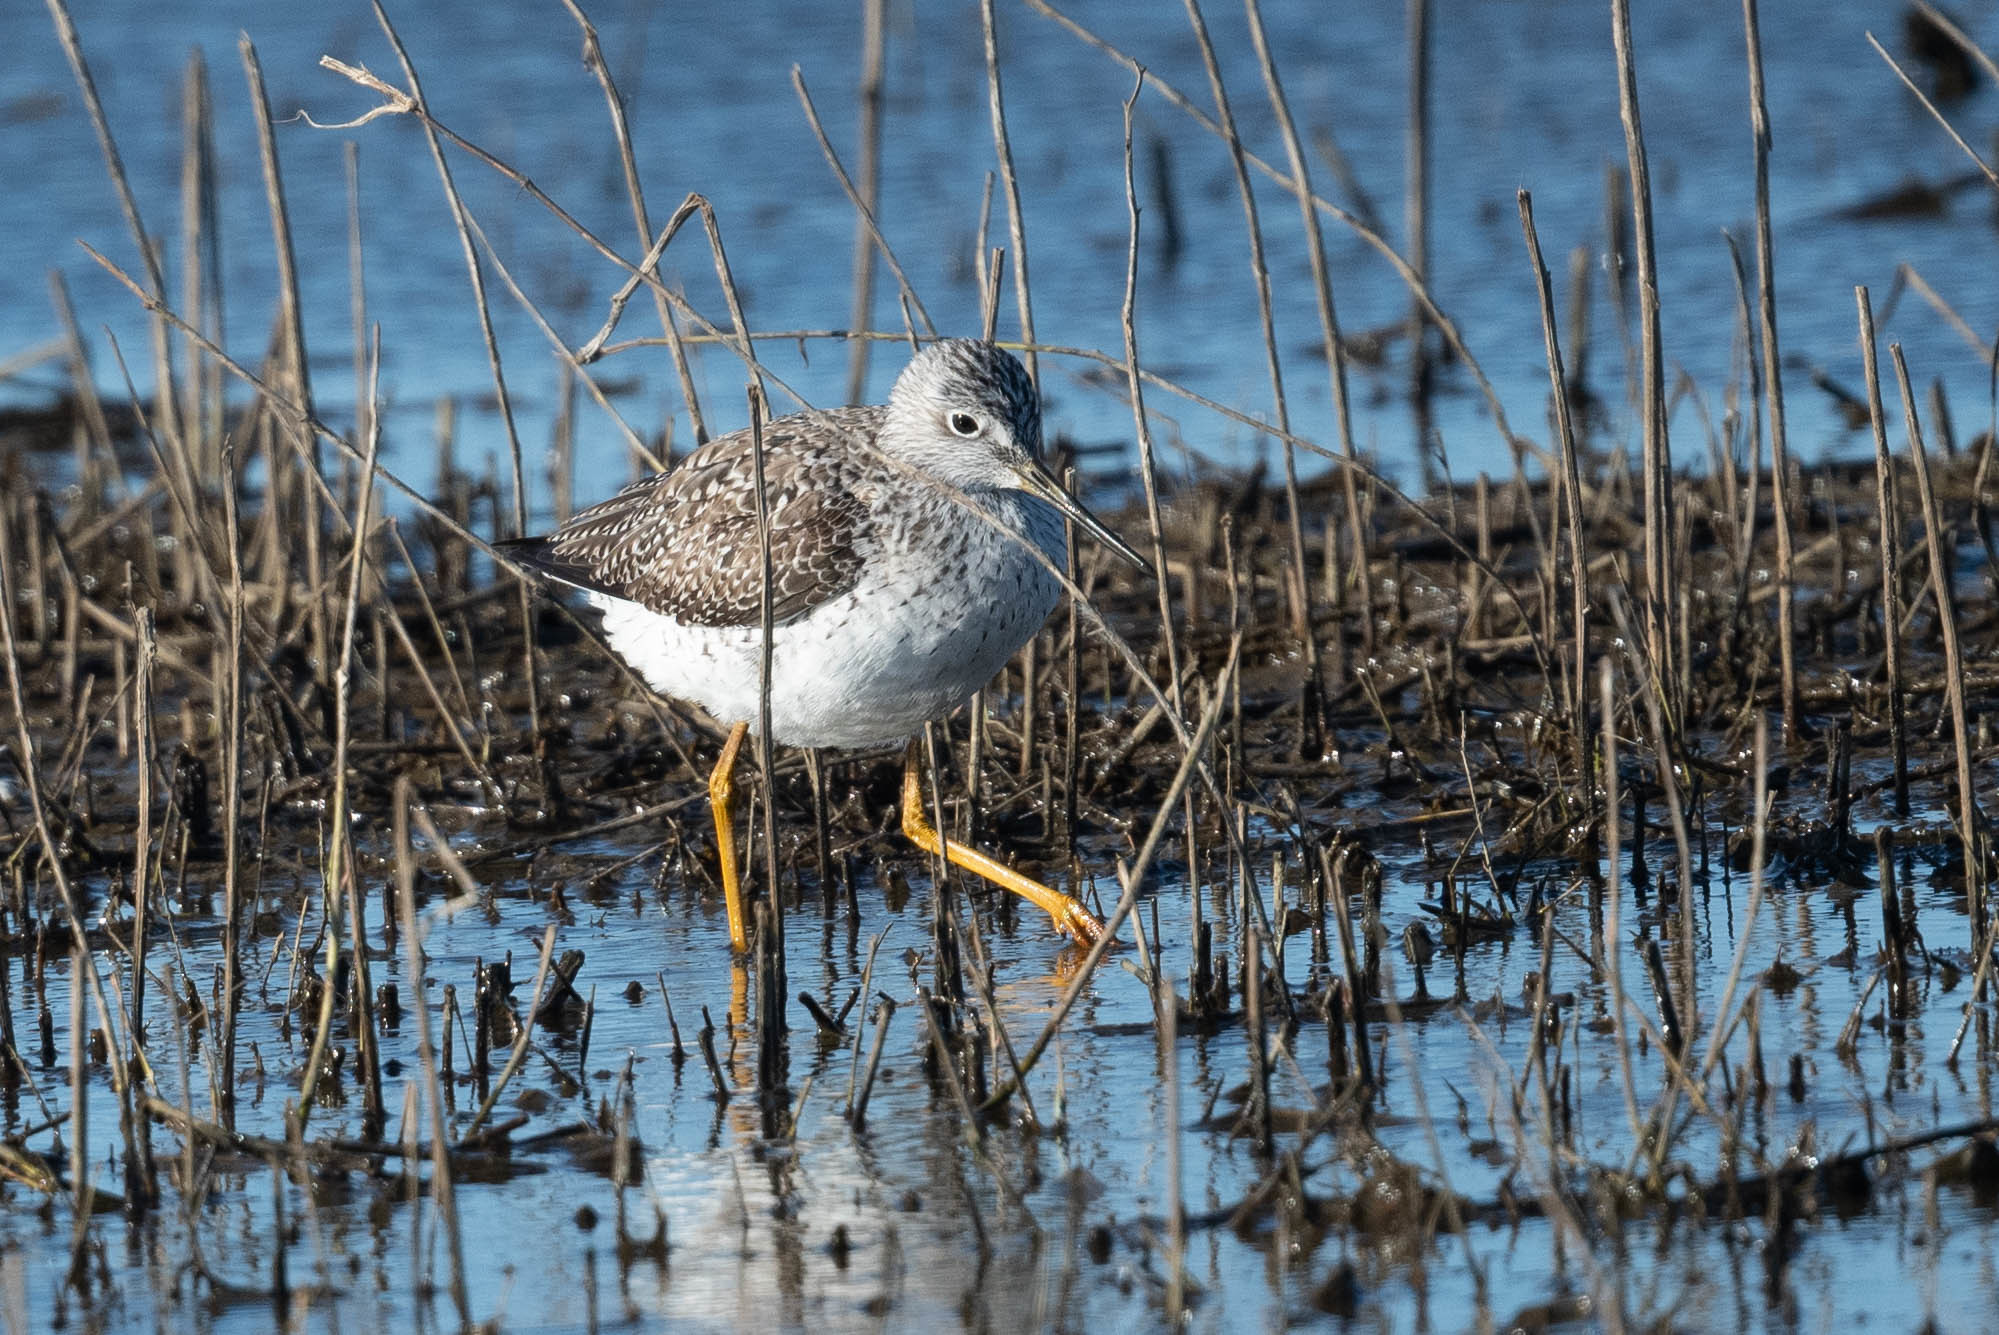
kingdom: Animalia
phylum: Chordata
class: Aves
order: Charadriiformes
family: Scolopacidae
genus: Tringa
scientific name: Tringa melanoleuca
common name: Greater yellowlegs
